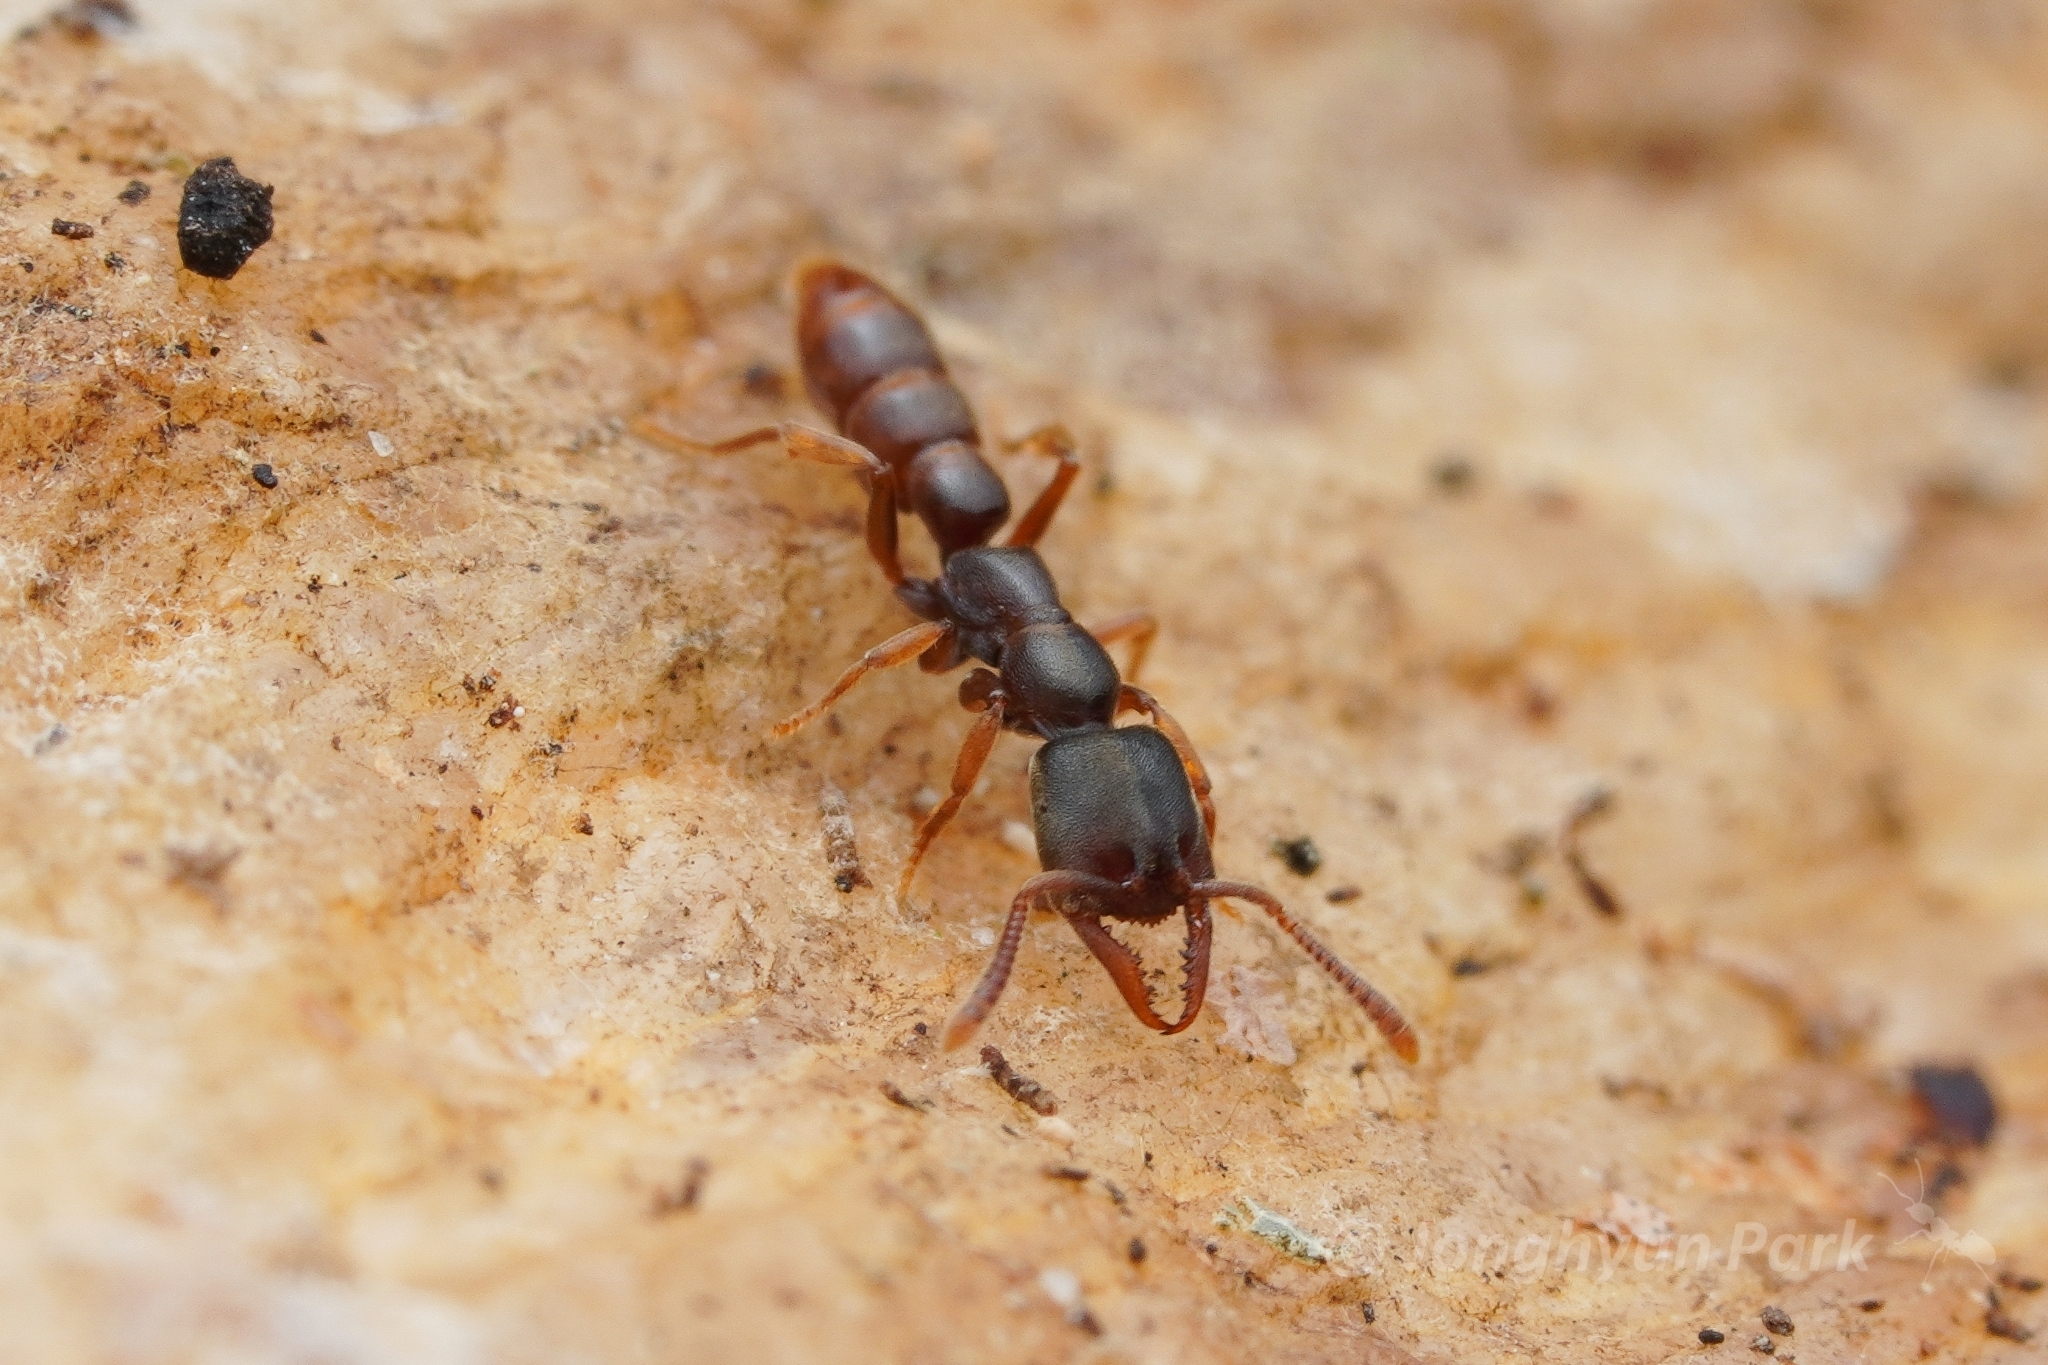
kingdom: Animalia
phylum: Arthropoda
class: Insecta
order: Hymenoptera
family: Formicidae
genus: Stigmatomma
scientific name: Stigmatomma pallipes
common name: Vampire ant
